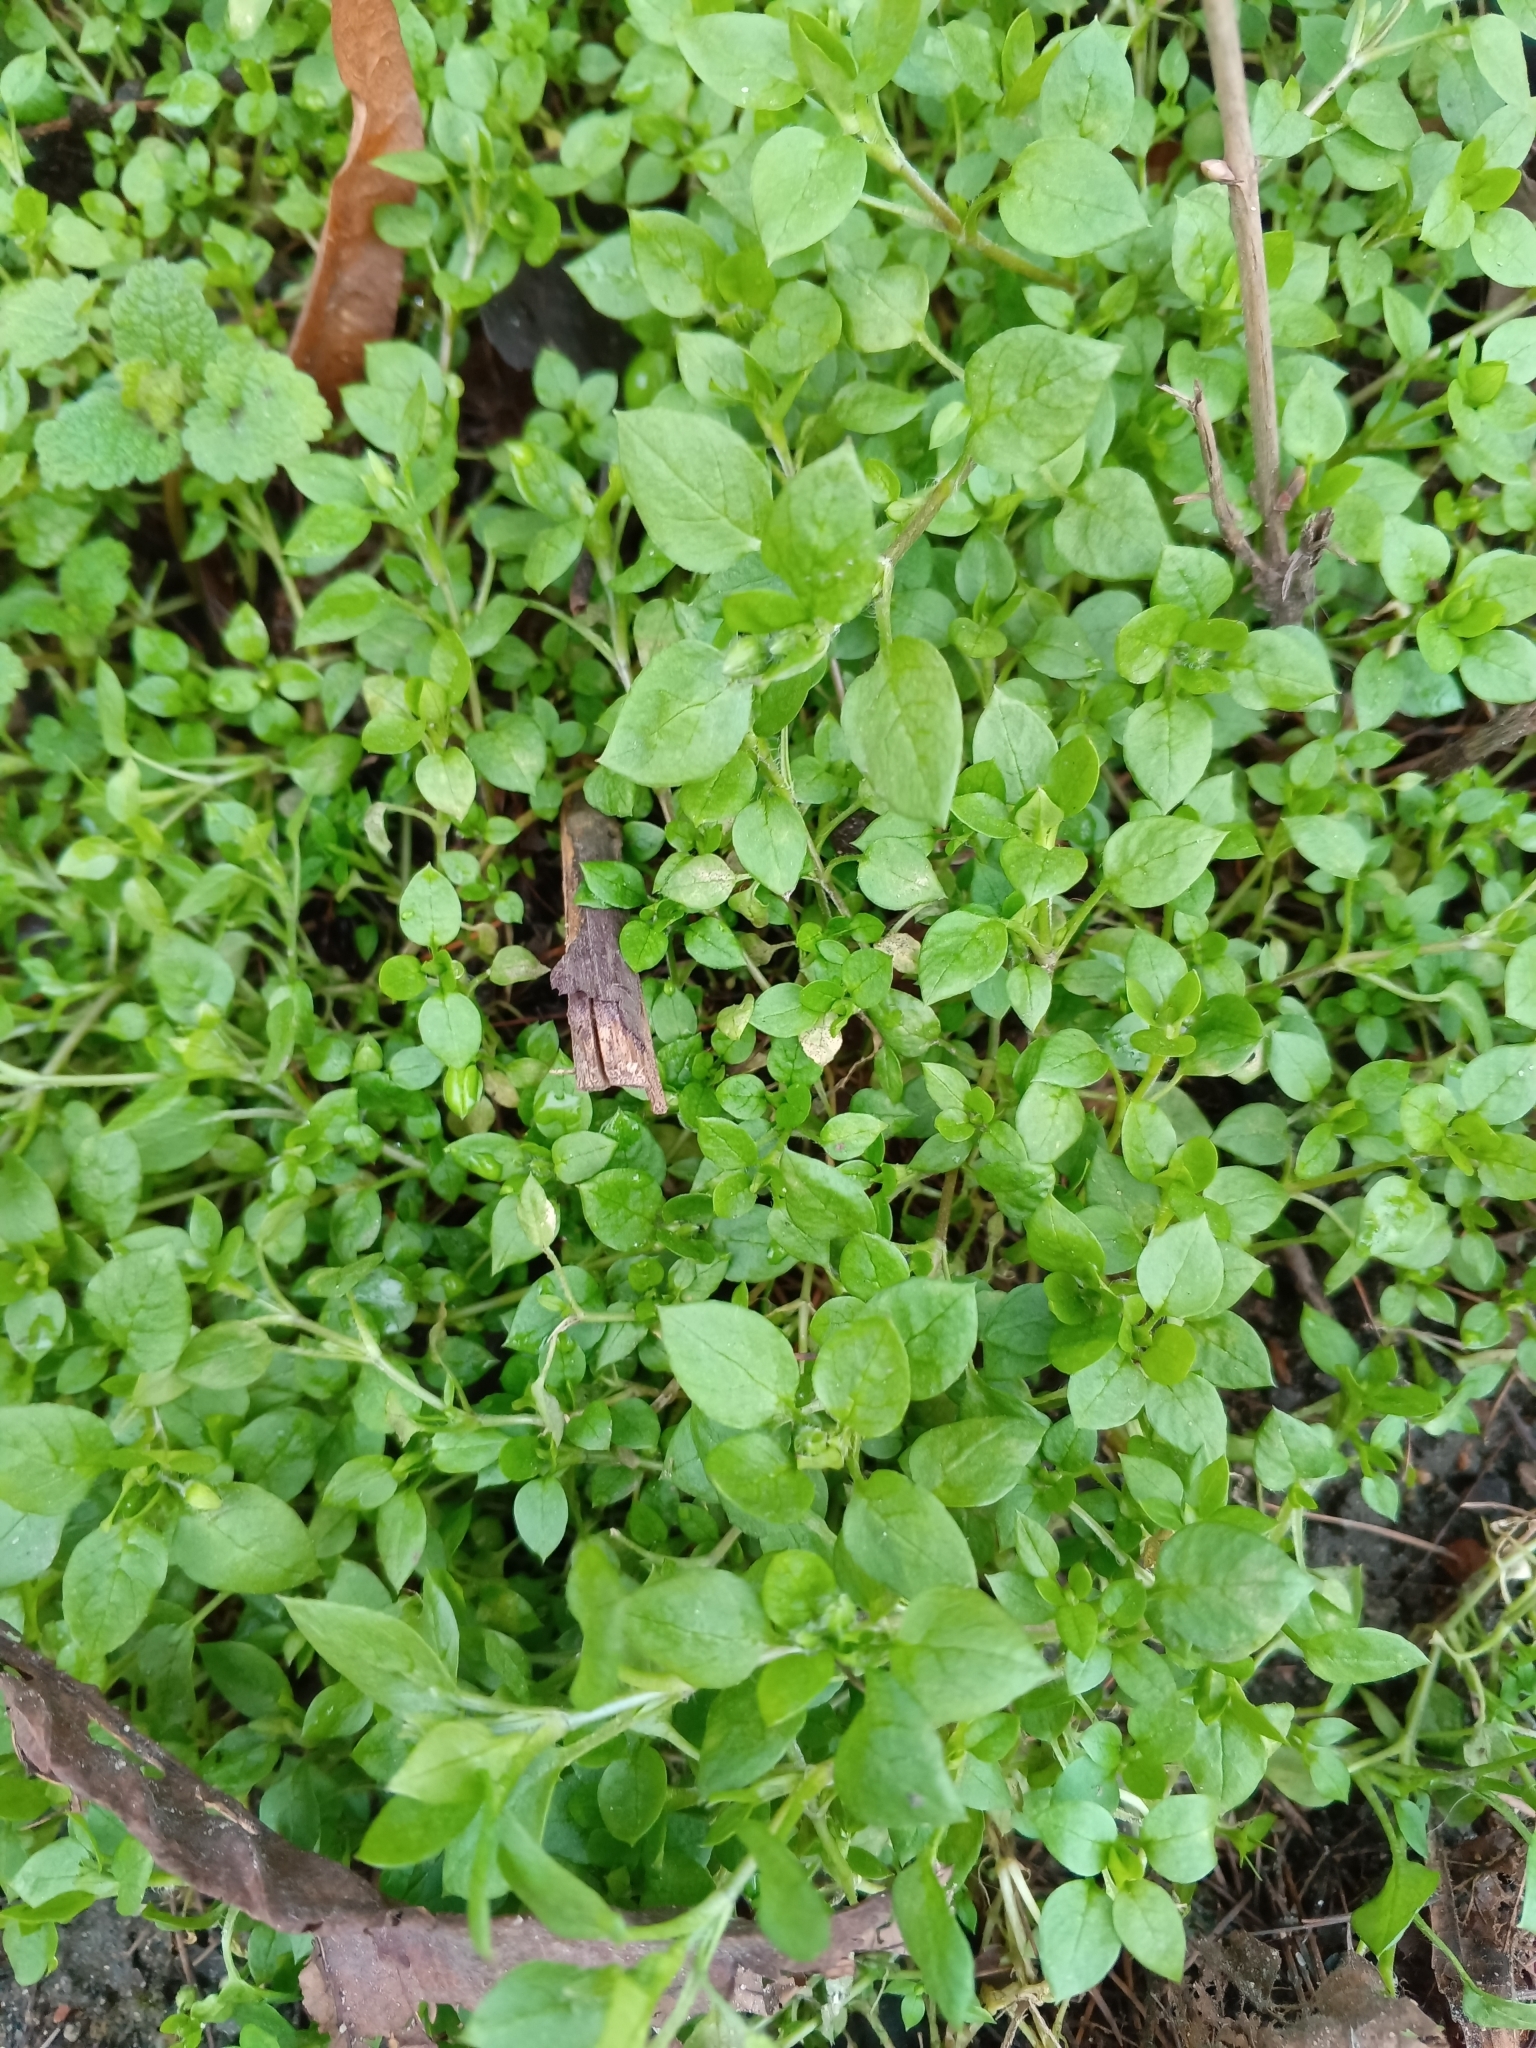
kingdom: Plantae
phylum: Tracheophyta
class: Magnoliopsida
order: Caryophyllales
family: Caryophyllaceae
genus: Stellaria
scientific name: Stellaria media
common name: Common chickweed
